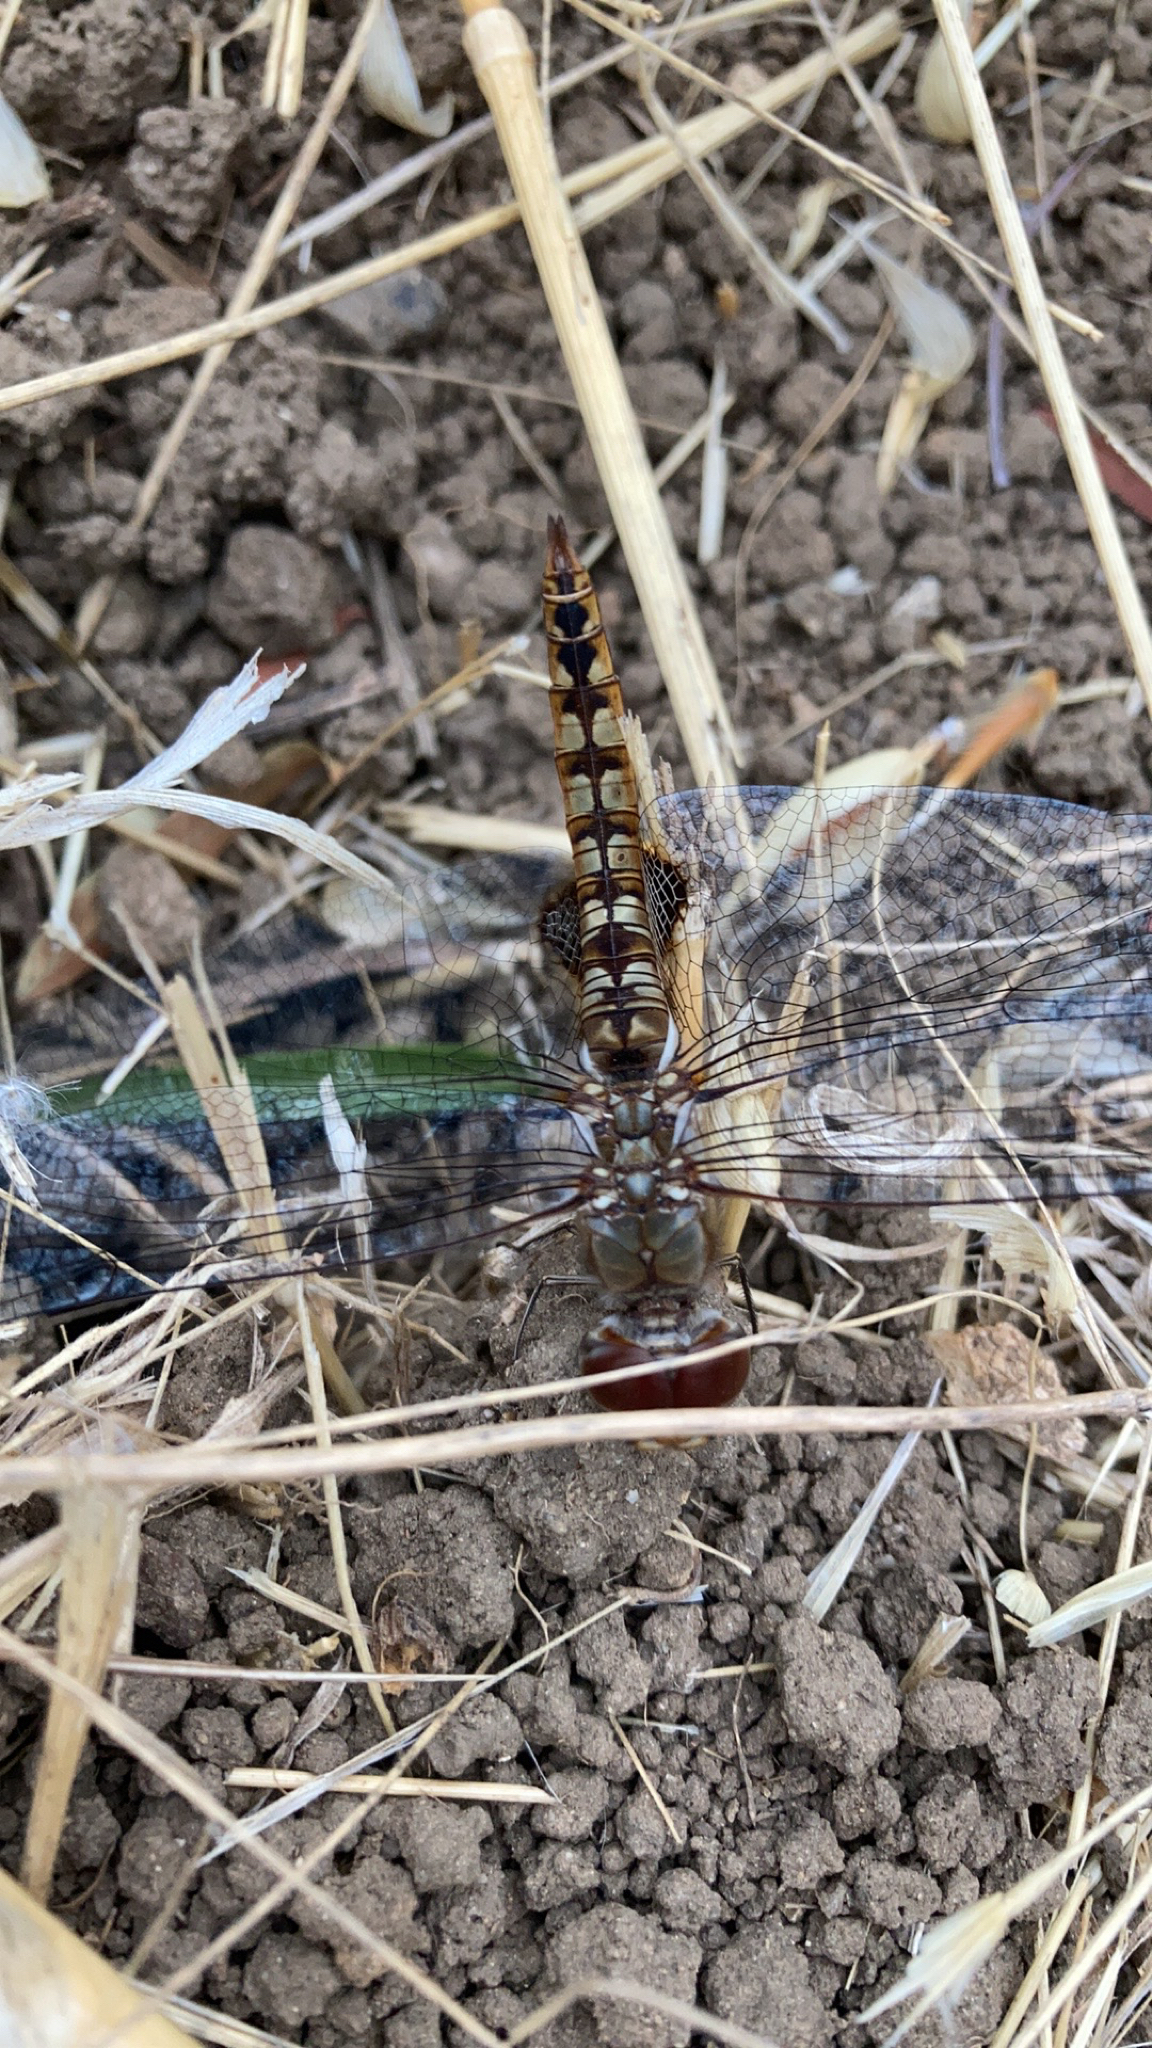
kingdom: Animalia
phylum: Arthropoda
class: Insecta
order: Odonata
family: Libellulidae
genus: Pantala
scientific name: Pantala hymenaea
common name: Spot-winged glider
